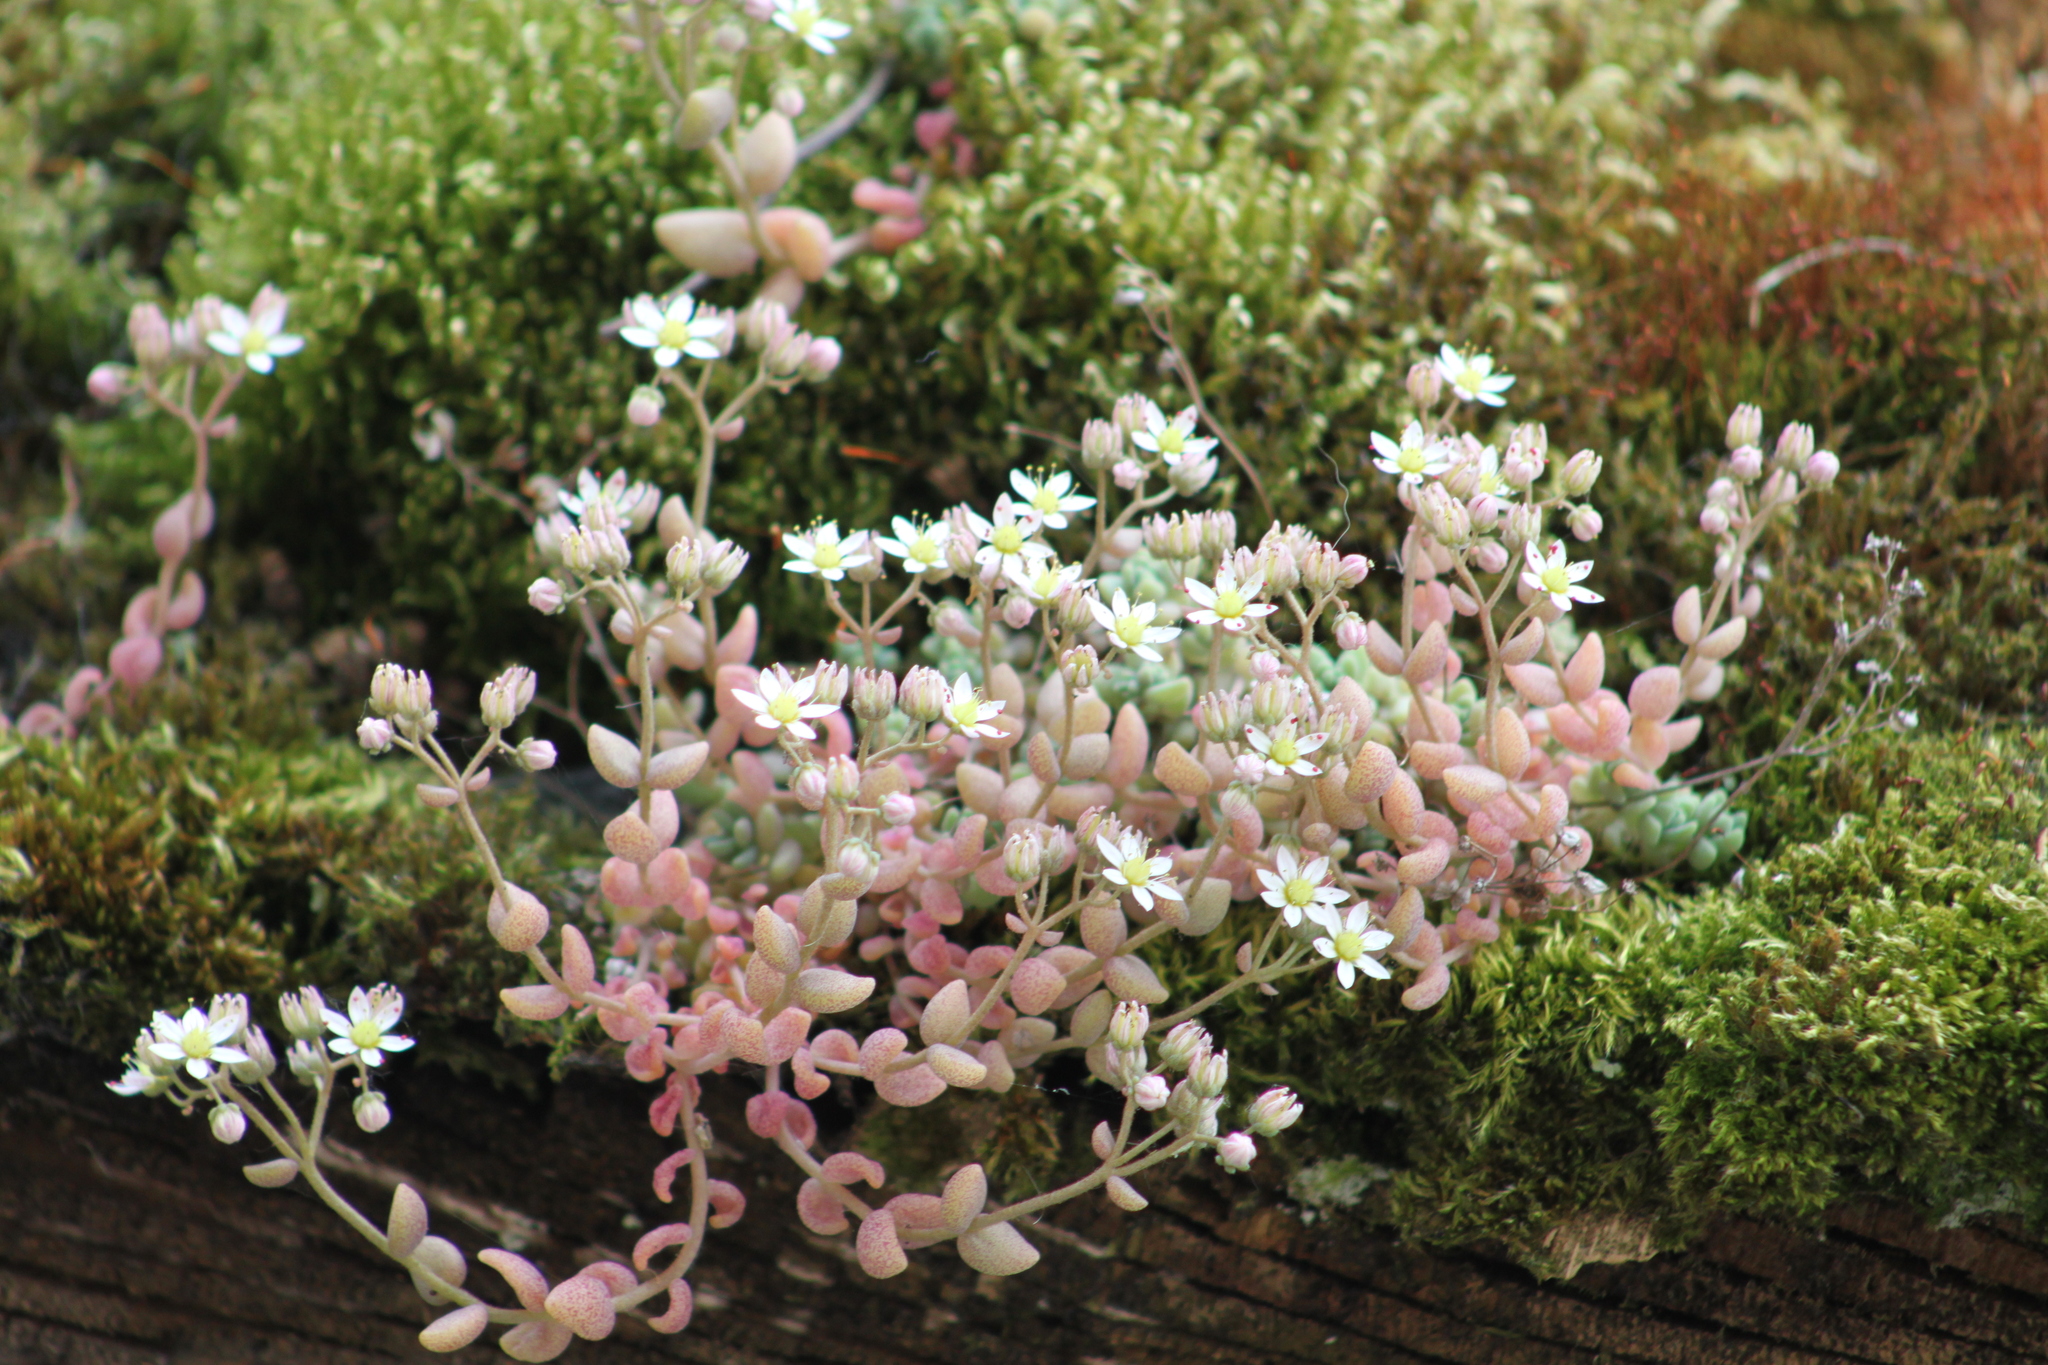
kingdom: Plantae
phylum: Tracheophyta
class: Magnoliopsida
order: Saxifragales
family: Crassulaceae
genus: Sedum
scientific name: Sedum dasyphyllum
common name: Thick-leaf stonecrop
